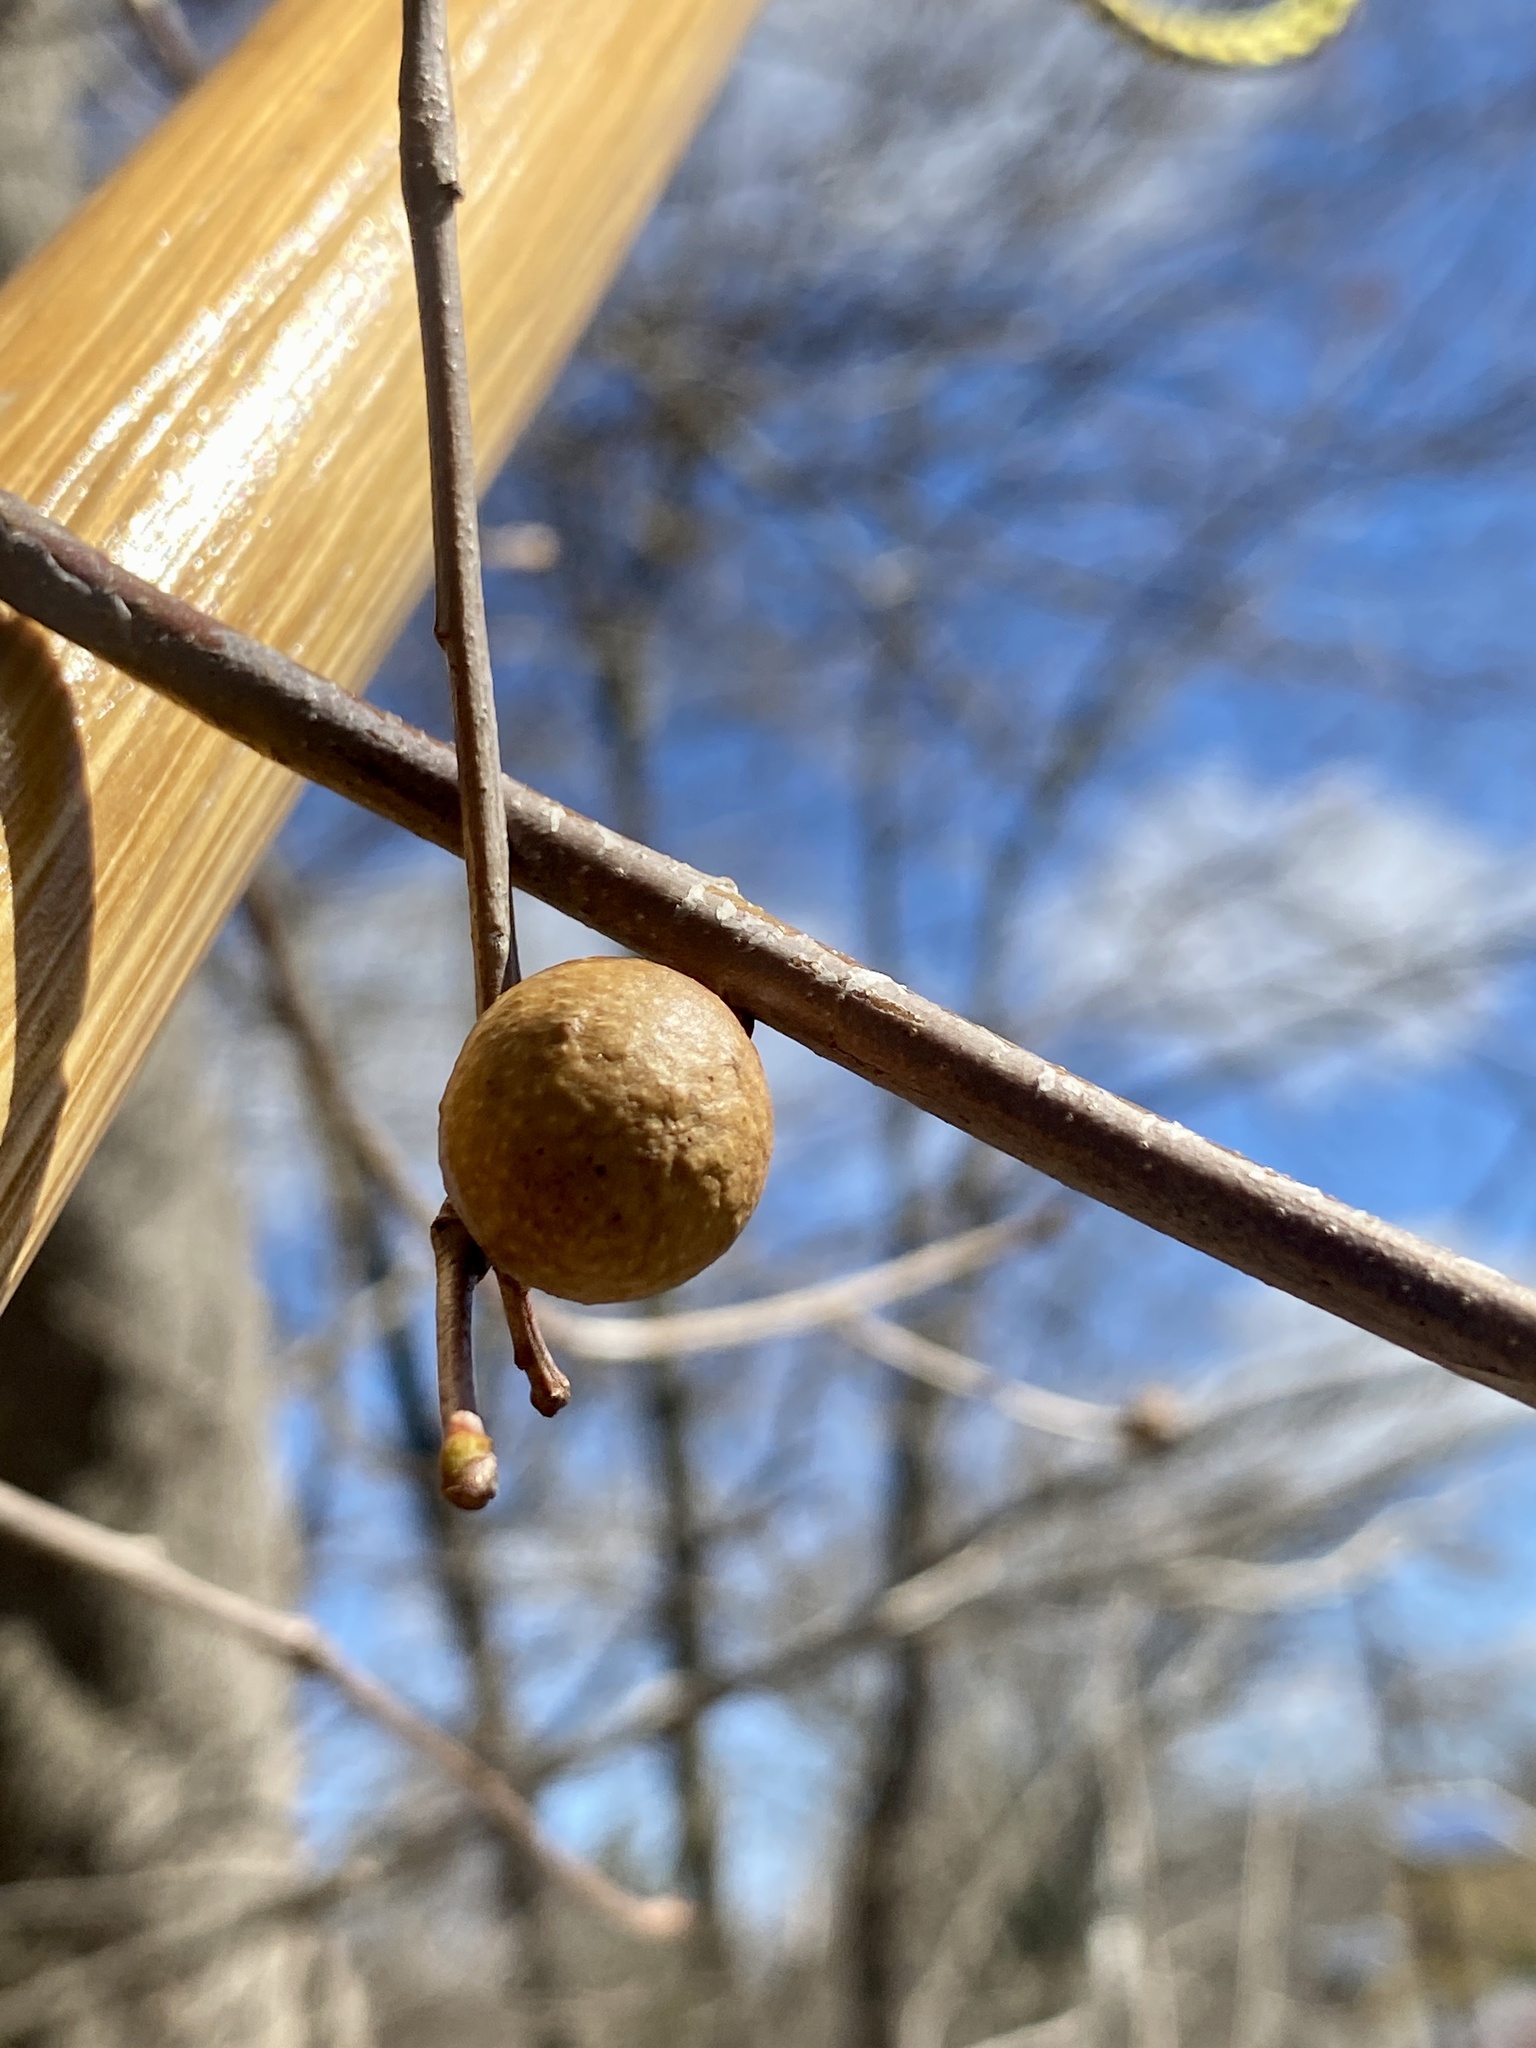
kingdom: Animalia
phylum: Arthropoda
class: Insecta
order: Hymenoptera
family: Cynipidae
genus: Disholcaspis
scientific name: Disholcaspis quercusglobulus
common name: Round bullet gall wasp
